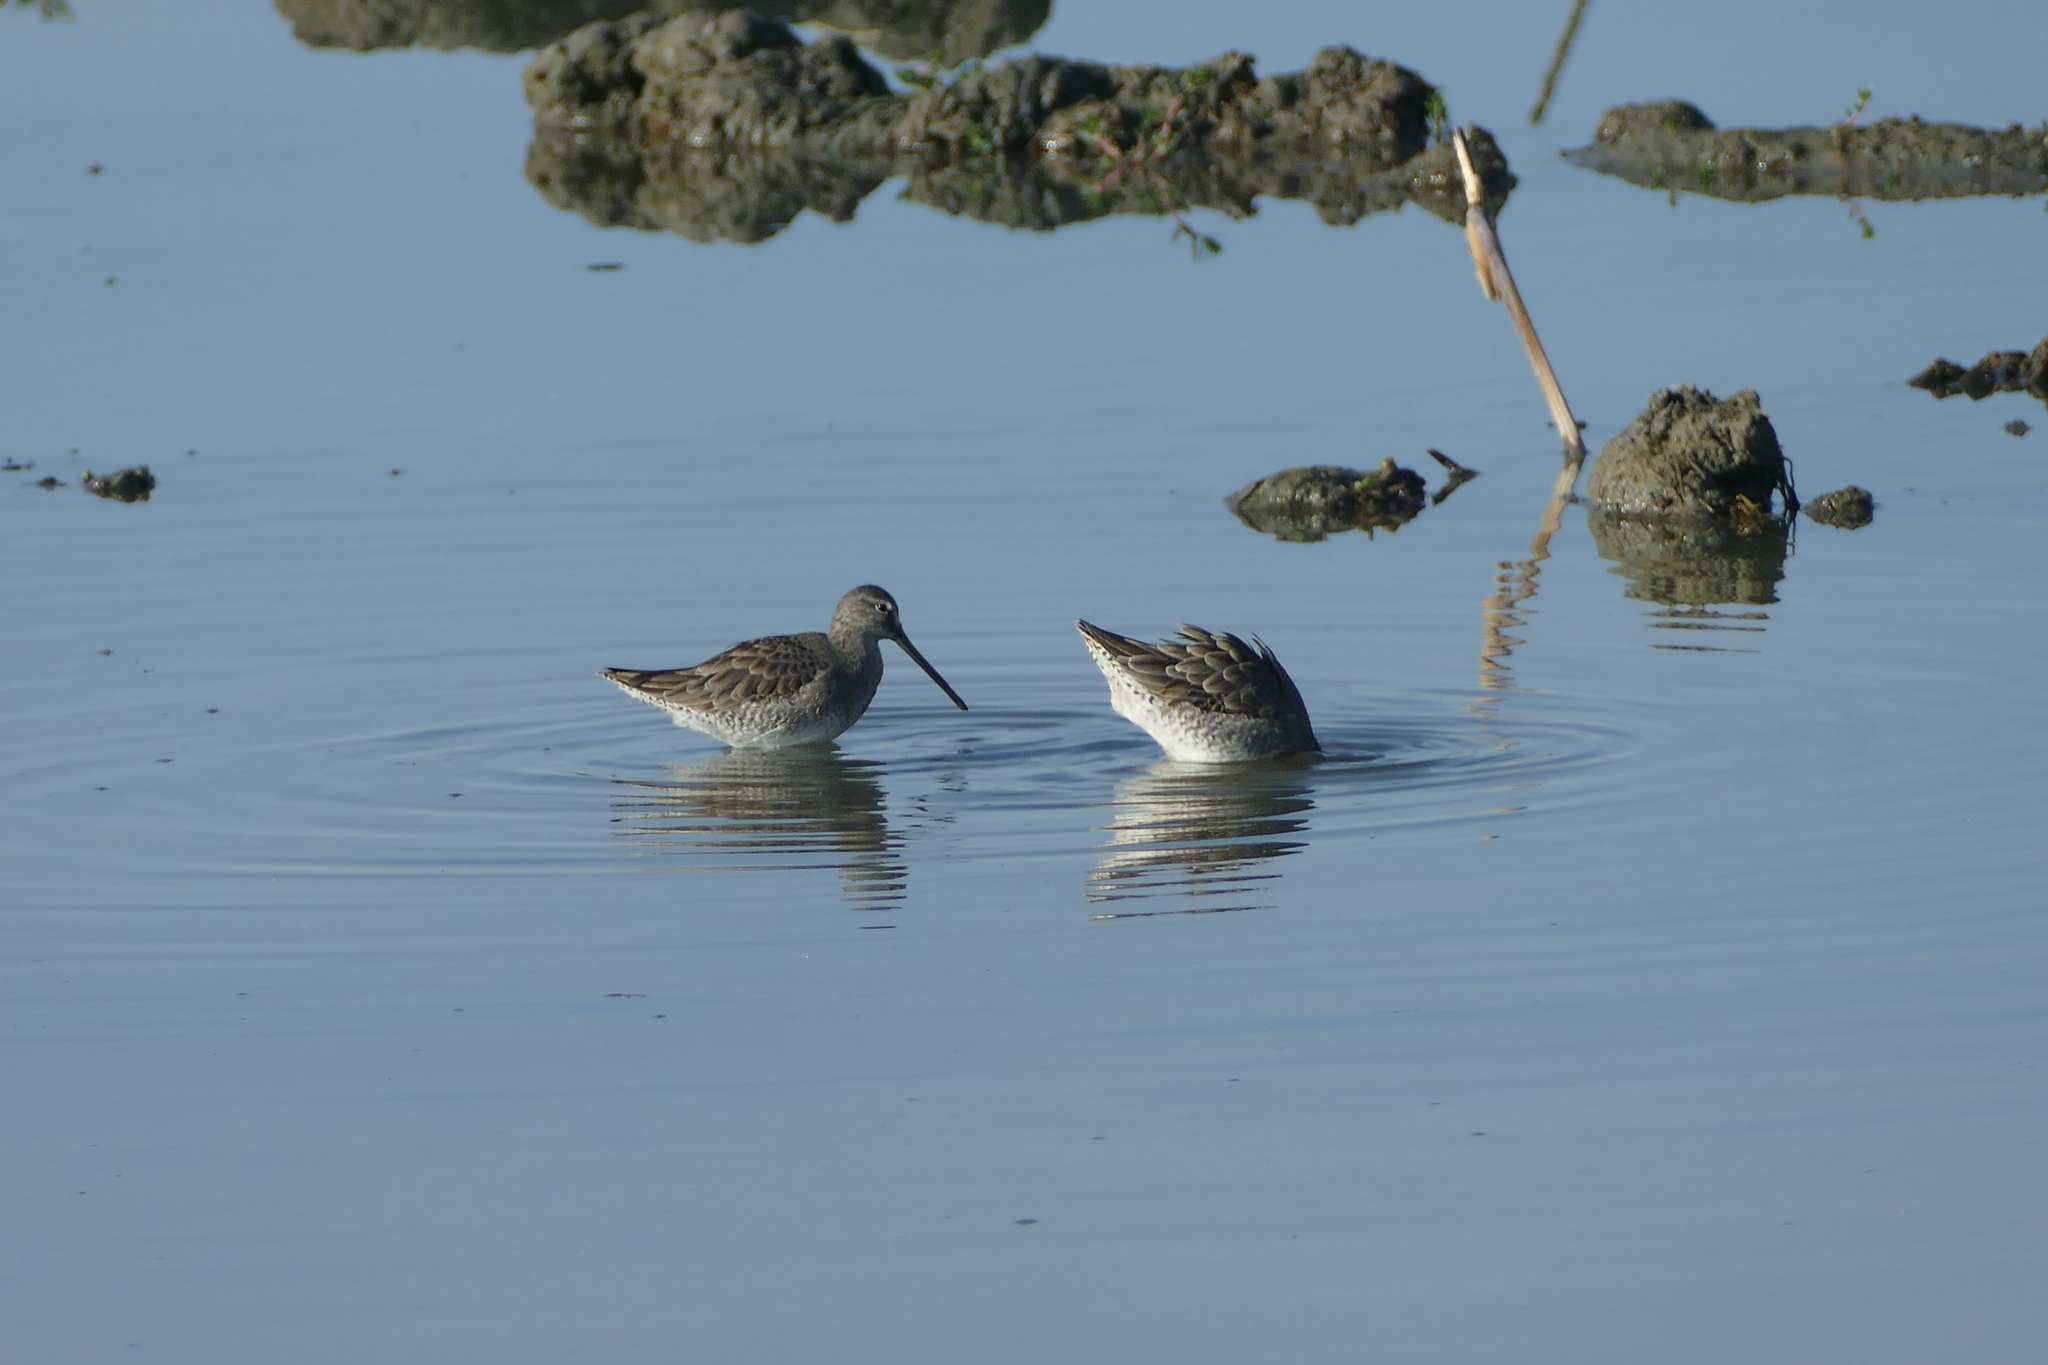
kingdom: Animalia
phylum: Chordata
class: Aves
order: Charadriiformes
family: Scolopacidae
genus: Limnodromus
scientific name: Limnodromus scolopaceus
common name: Long-billed dowitcher
